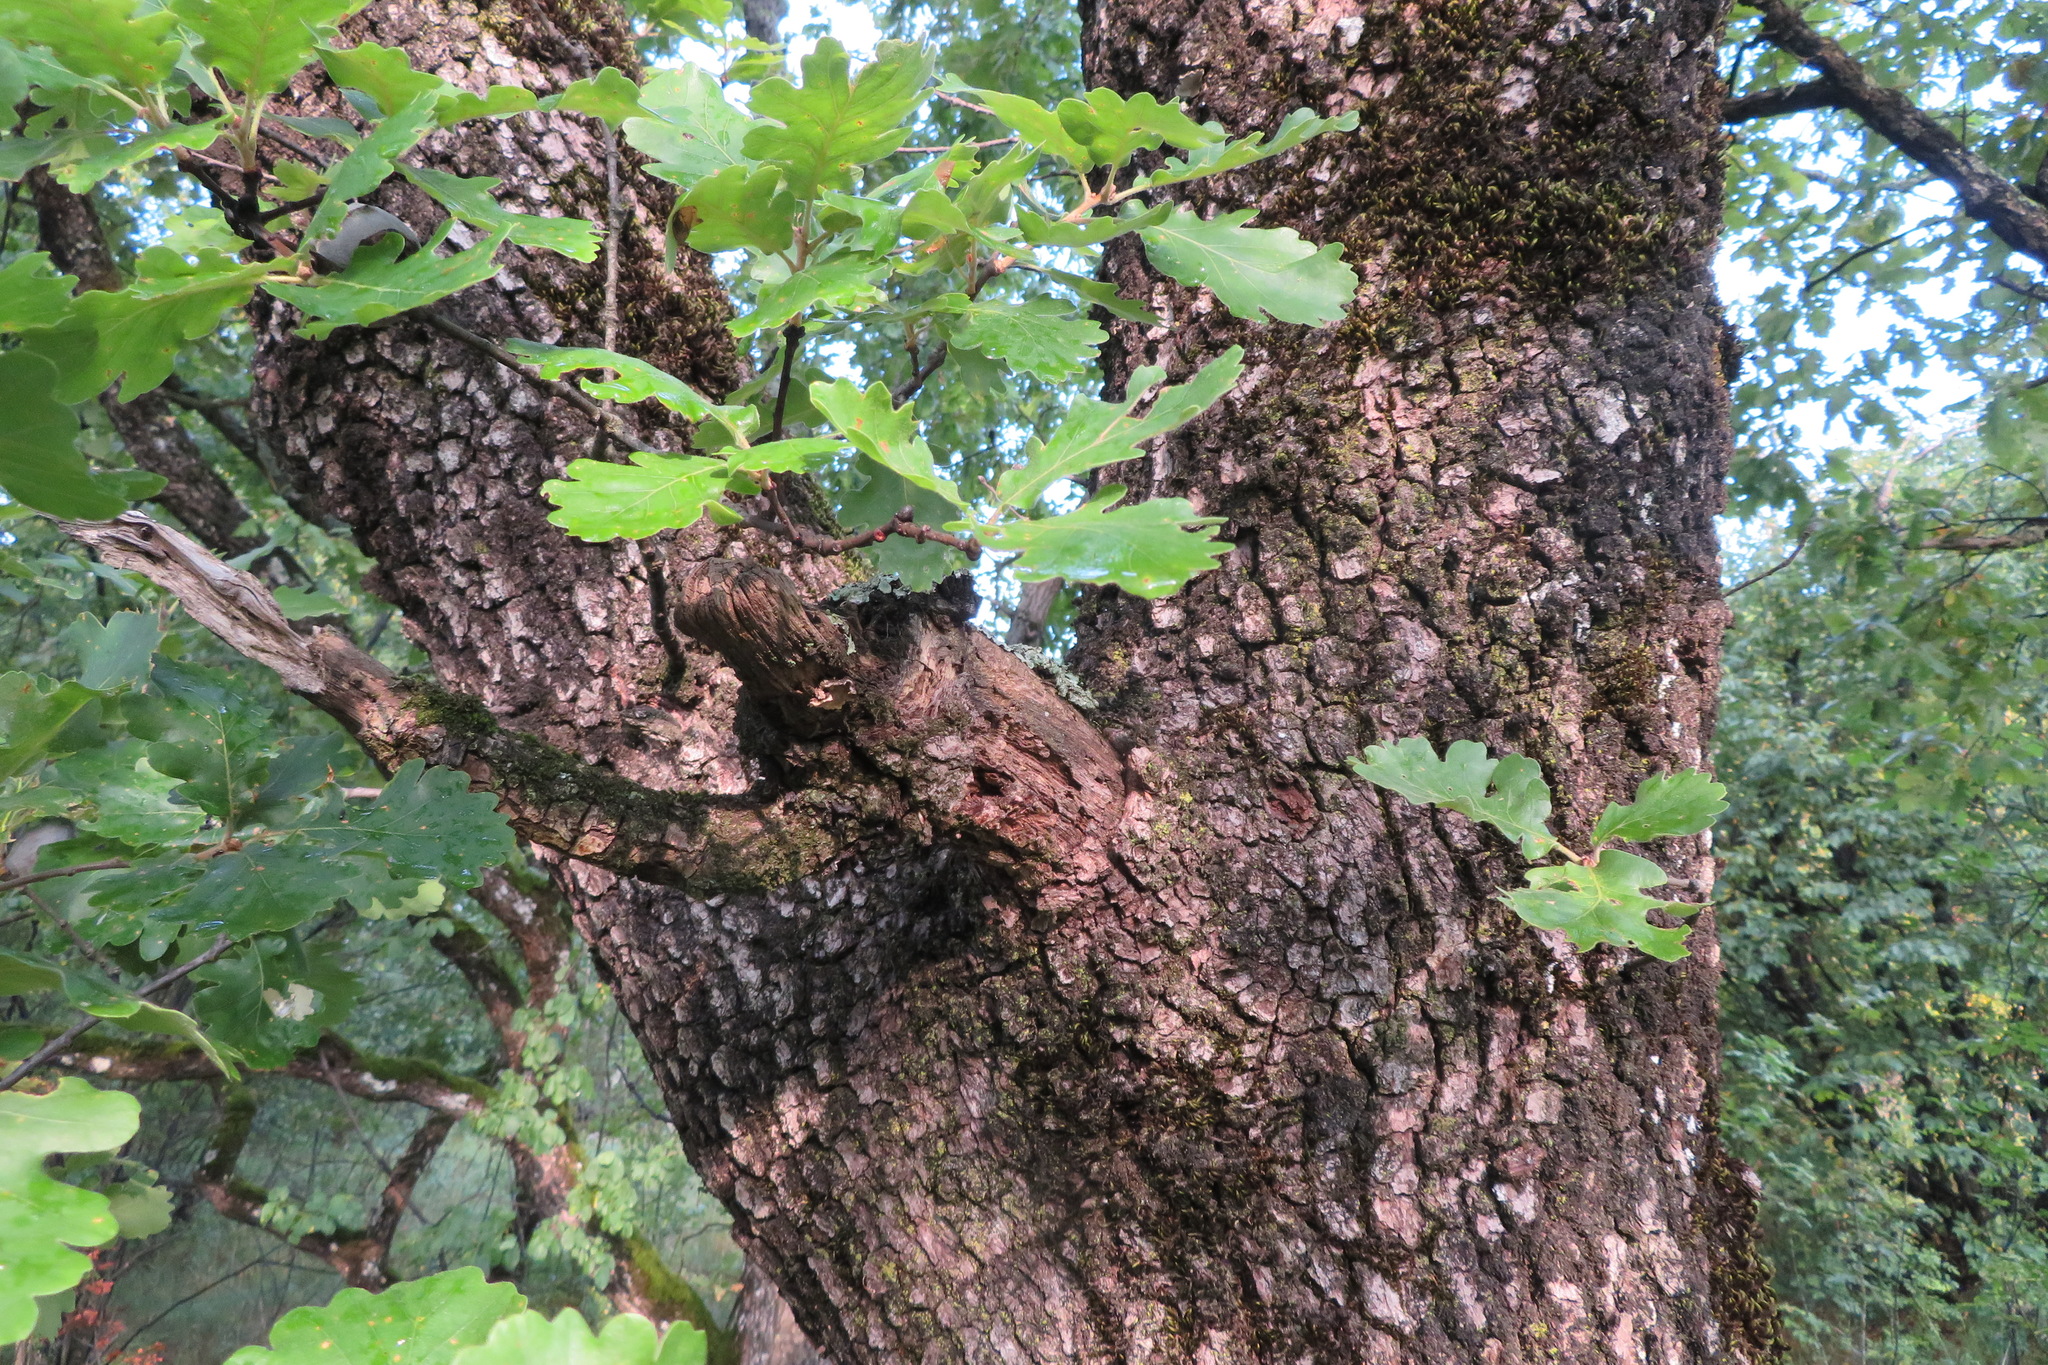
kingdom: Plantae
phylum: Tracheophyta
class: Magnoliopsida
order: Fagales
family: Fagaceae
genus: Quercus
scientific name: Quercus petraea
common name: Sessile oak
